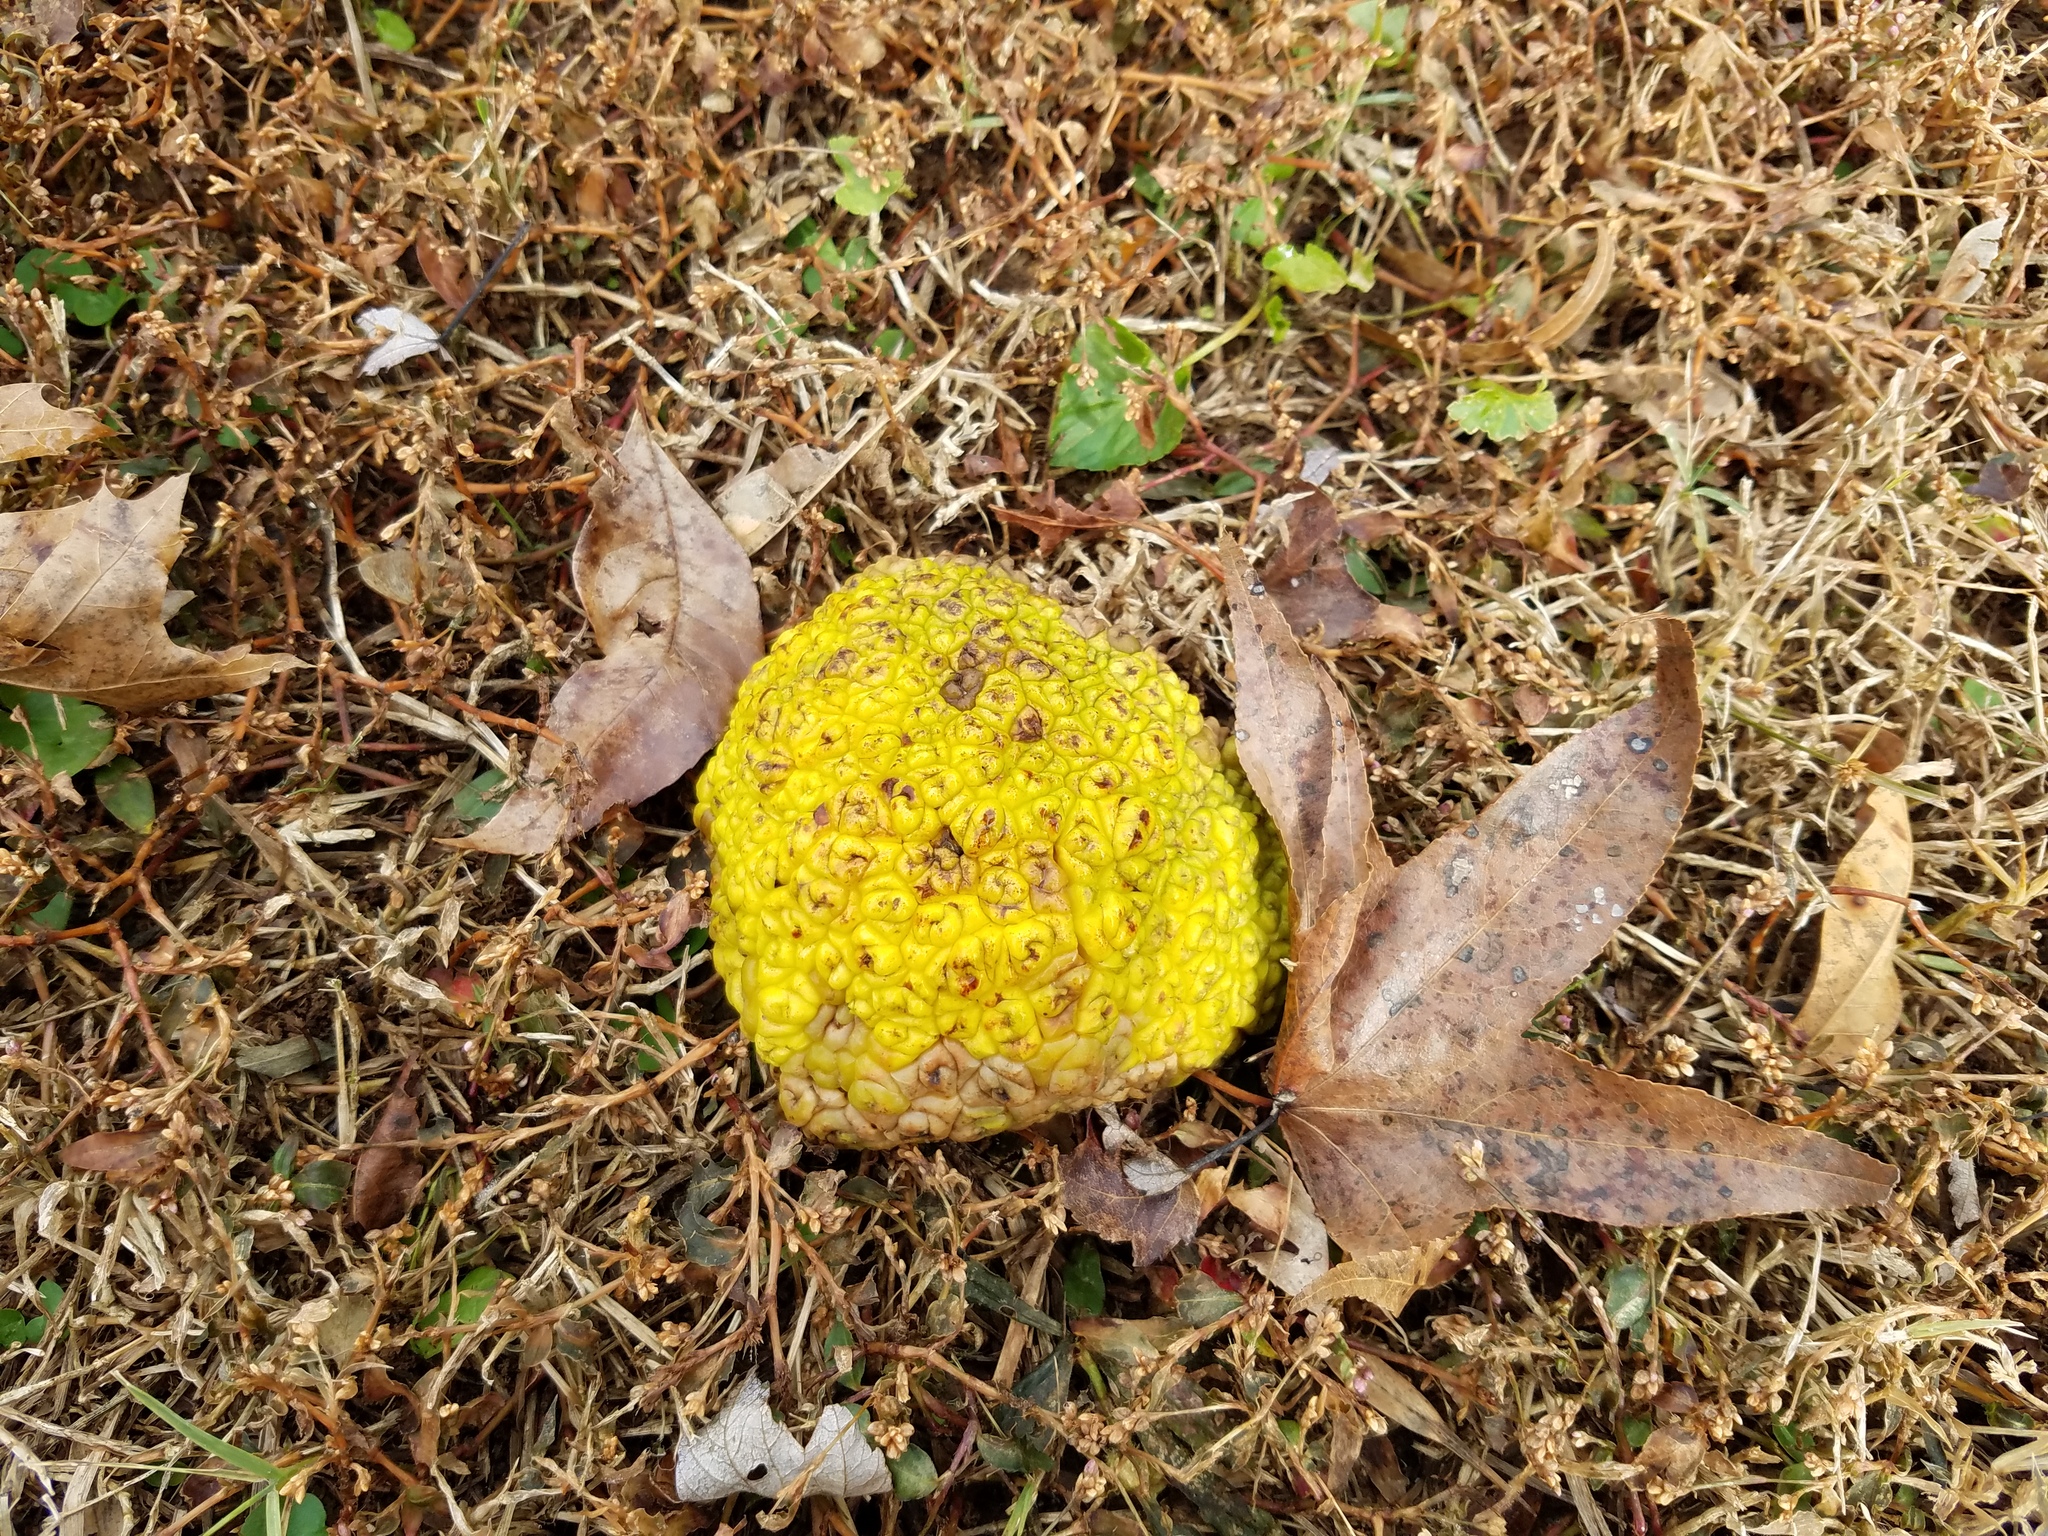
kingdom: Plantae
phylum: Tracheophyta
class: Magnoliopsida
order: Rosales
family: Moraceae
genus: Maclura
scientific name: Maclura pomifera
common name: Osage-orange
